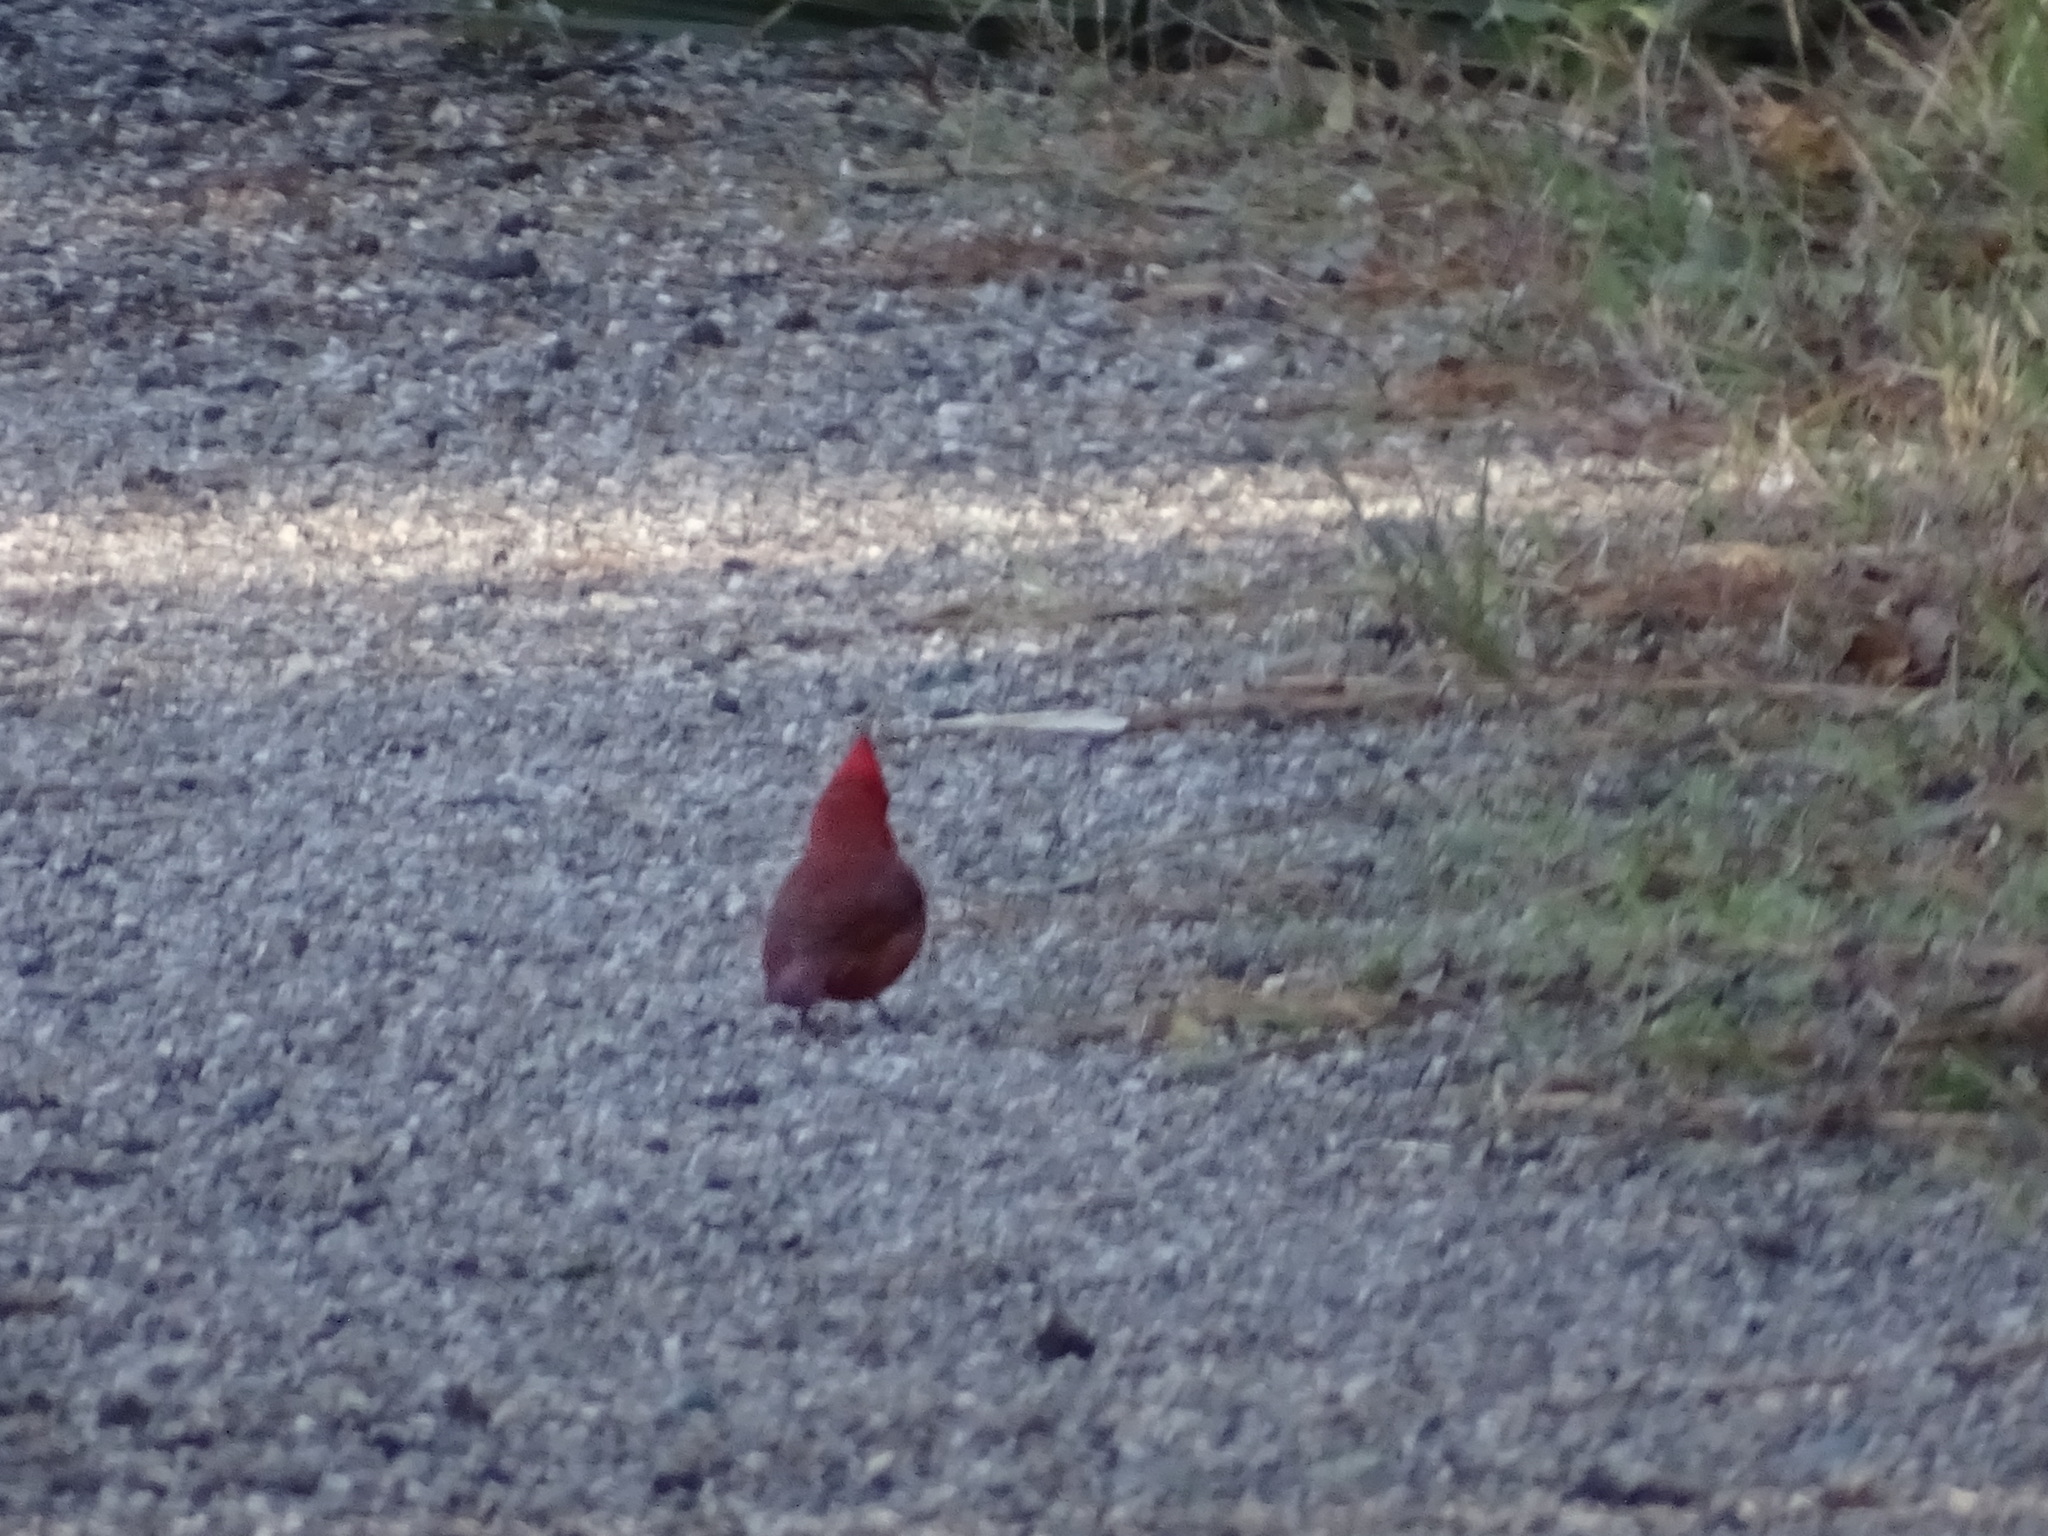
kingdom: Animalia
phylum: Chordata
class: Aves
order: Passeriformes
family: Cardinalidae
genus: Cardinalis
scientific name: Cardinalis cardinalis
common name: Northern cardinal
